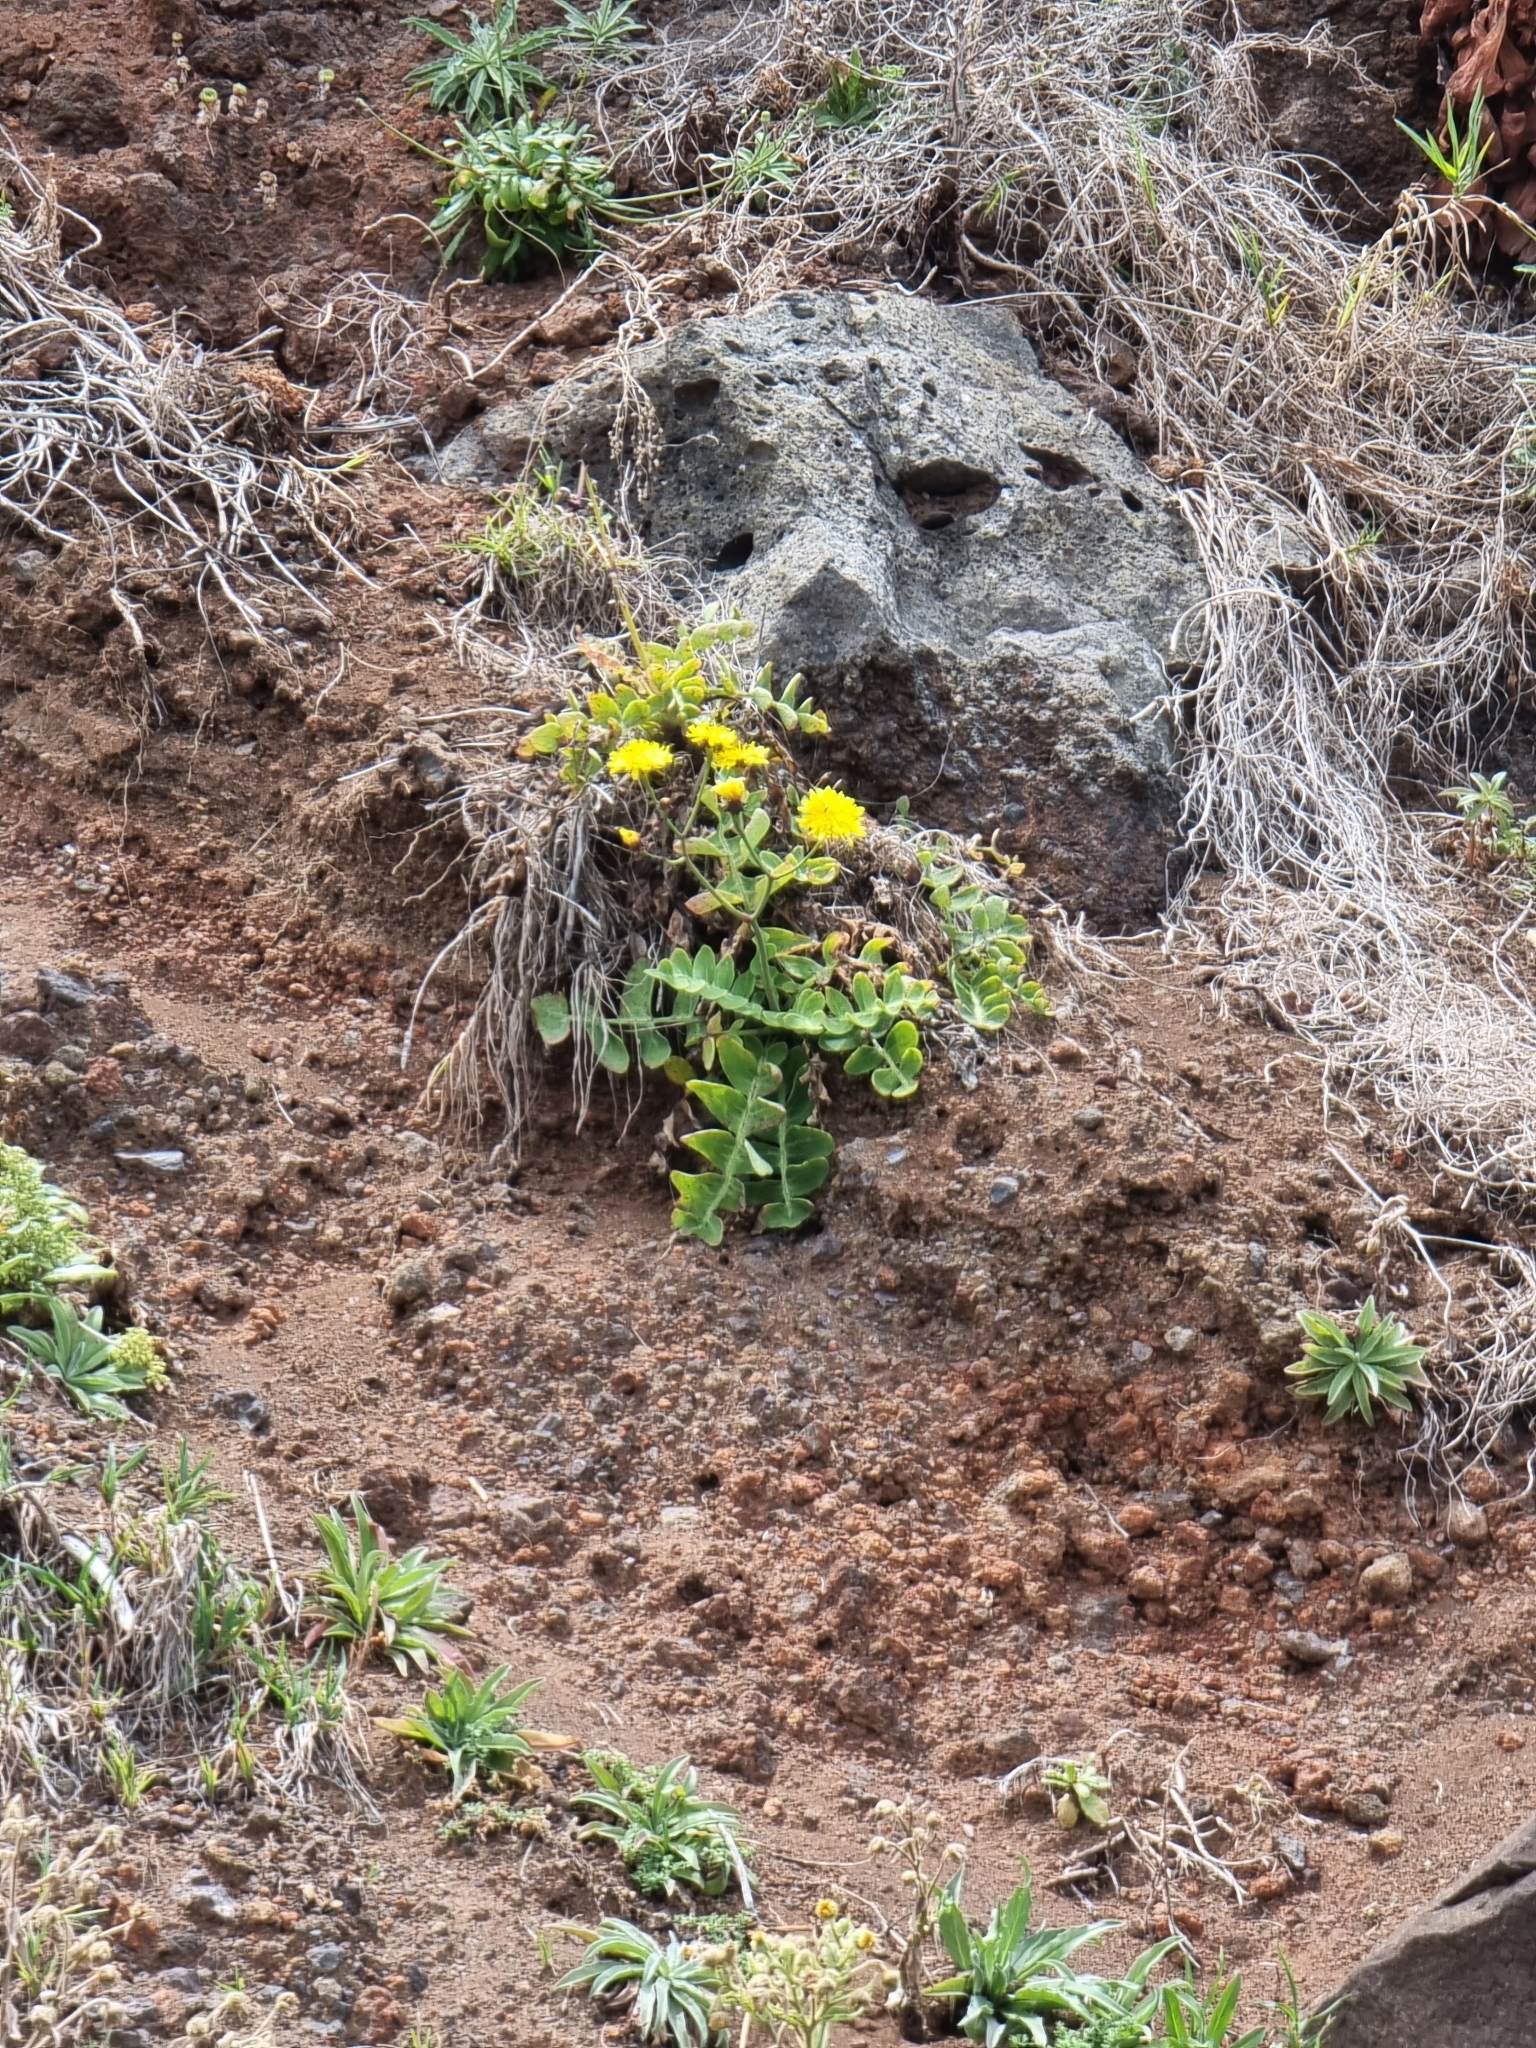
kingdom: Plantae
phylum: Tracheophyta
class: Magnoliopsida
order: Asterales
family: Asteraceae
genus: Sonchus
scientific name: Sonchus latifolius
